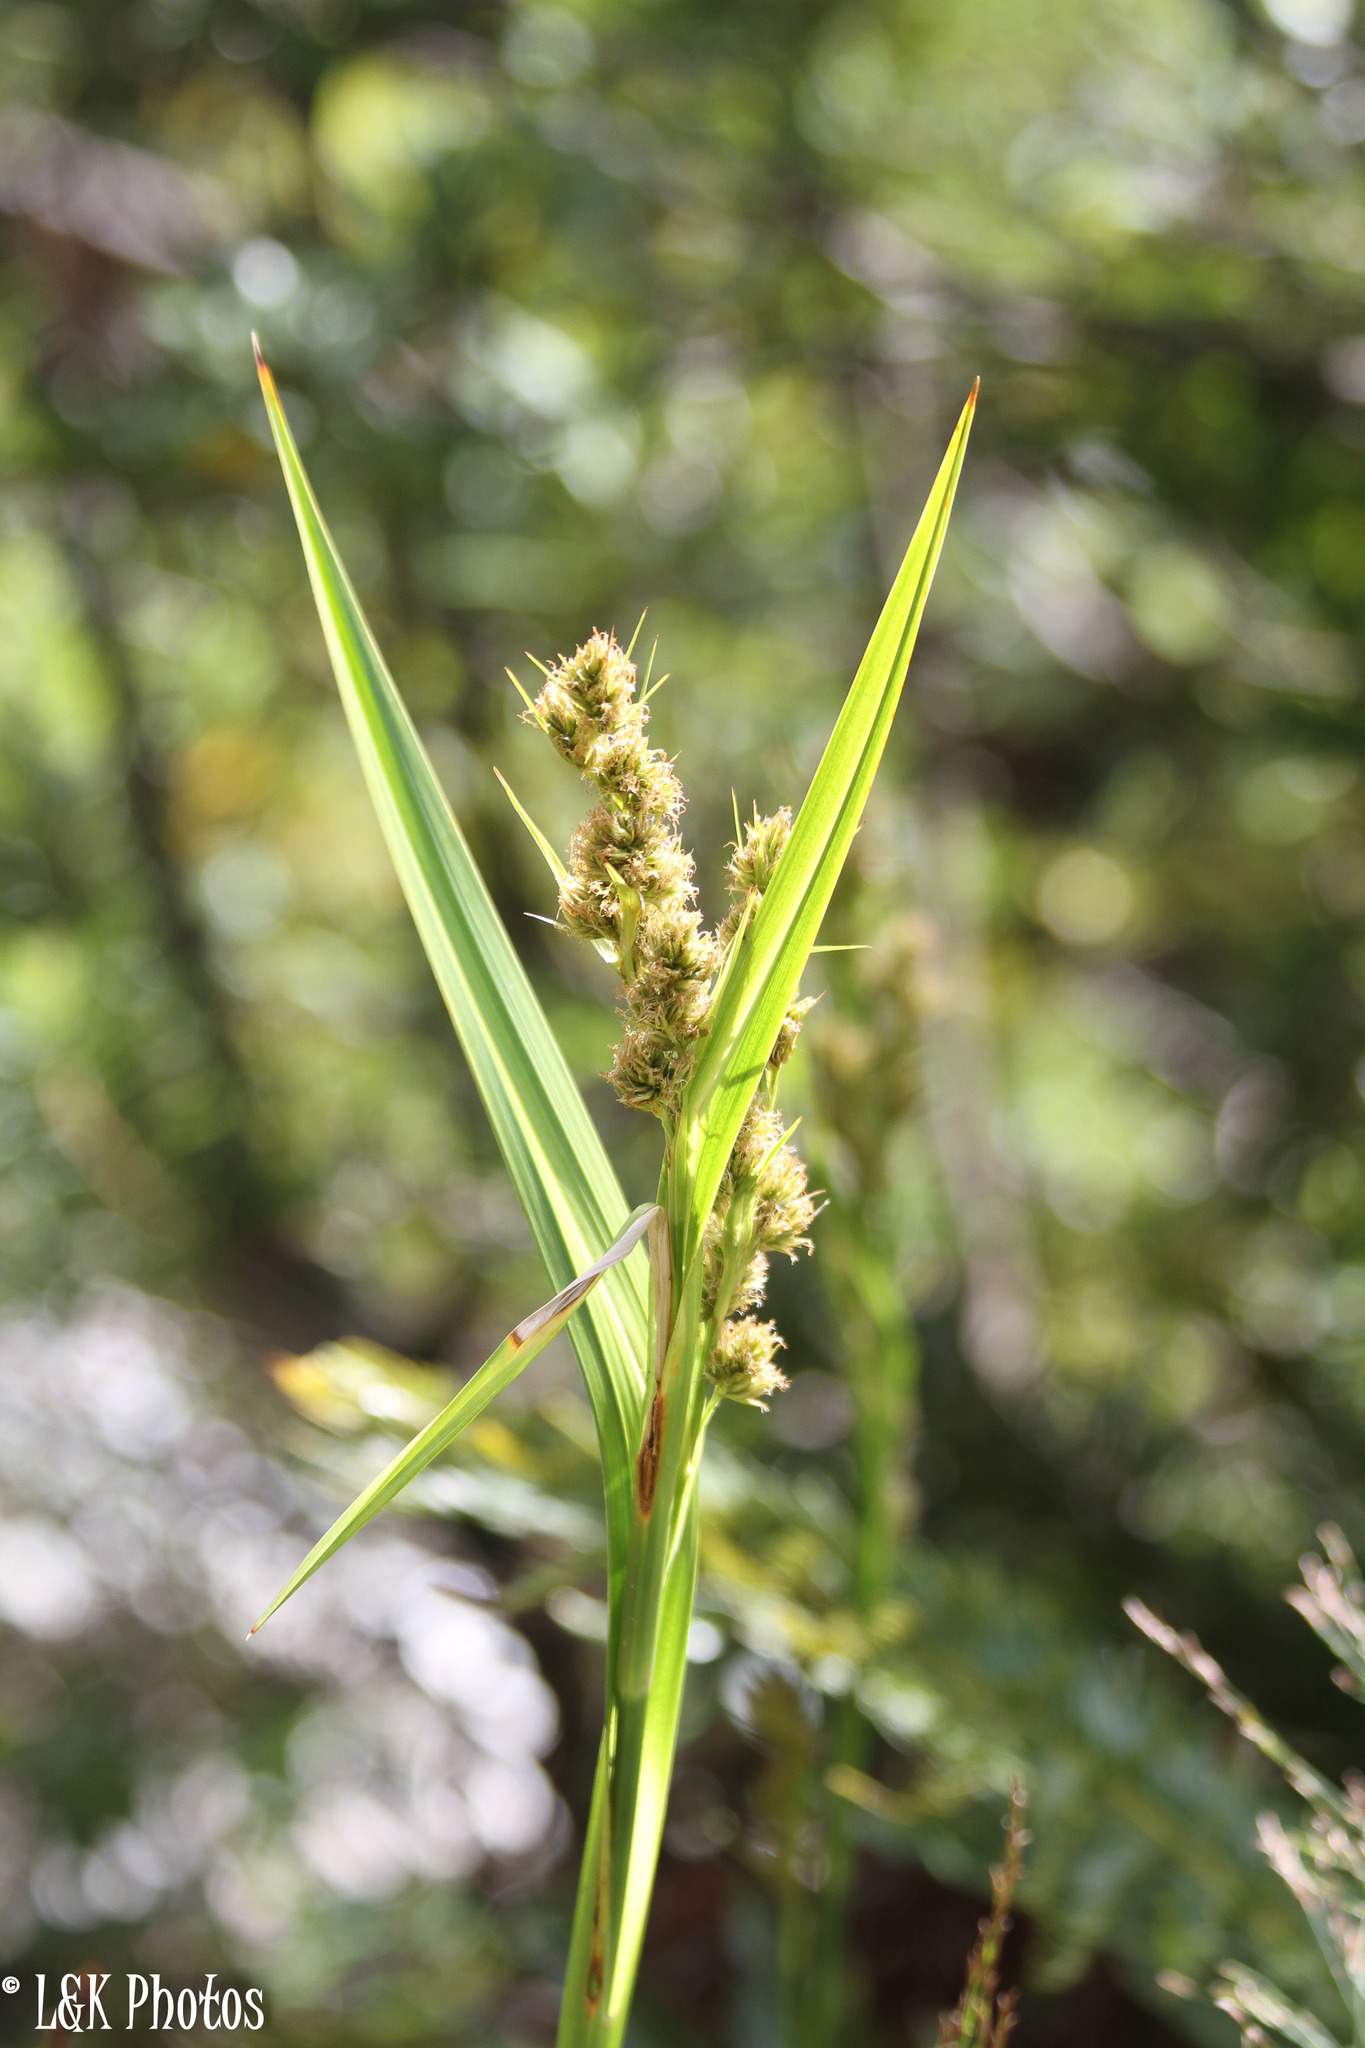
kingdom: Plantae
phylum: Tracheophyta
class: Liliopsida
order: Poales
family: Cyperaceae
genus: Carpha
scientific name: Carpha glomerata
